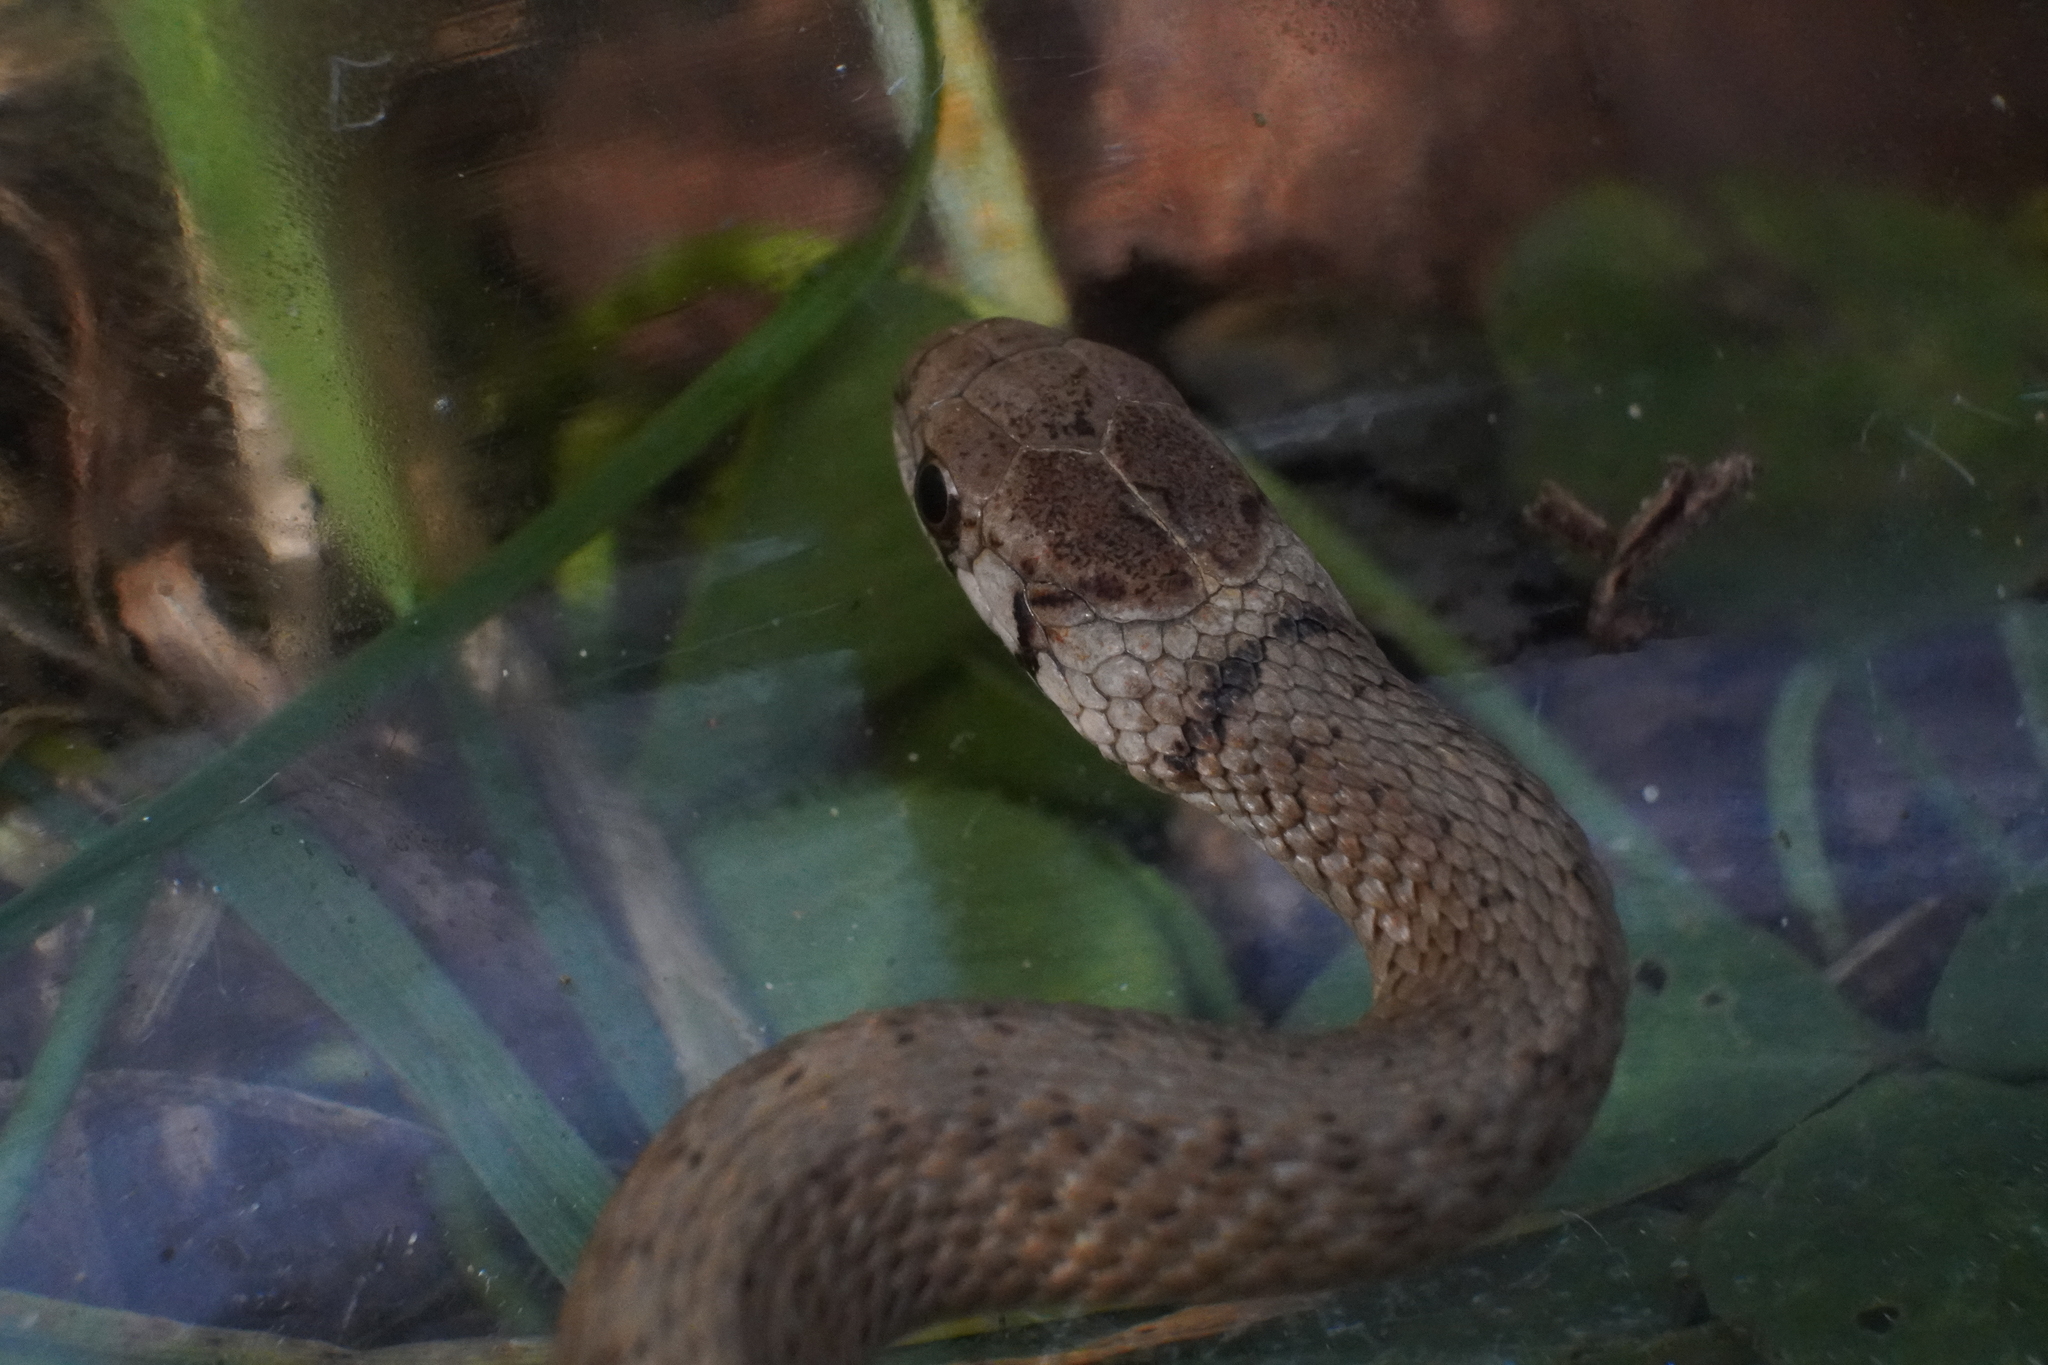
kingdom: Animalia
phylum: Chordata
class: Squamata
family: Colubridae
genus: Storeria
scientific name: Storeria dekayi
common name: (dekay’s) brown snake
